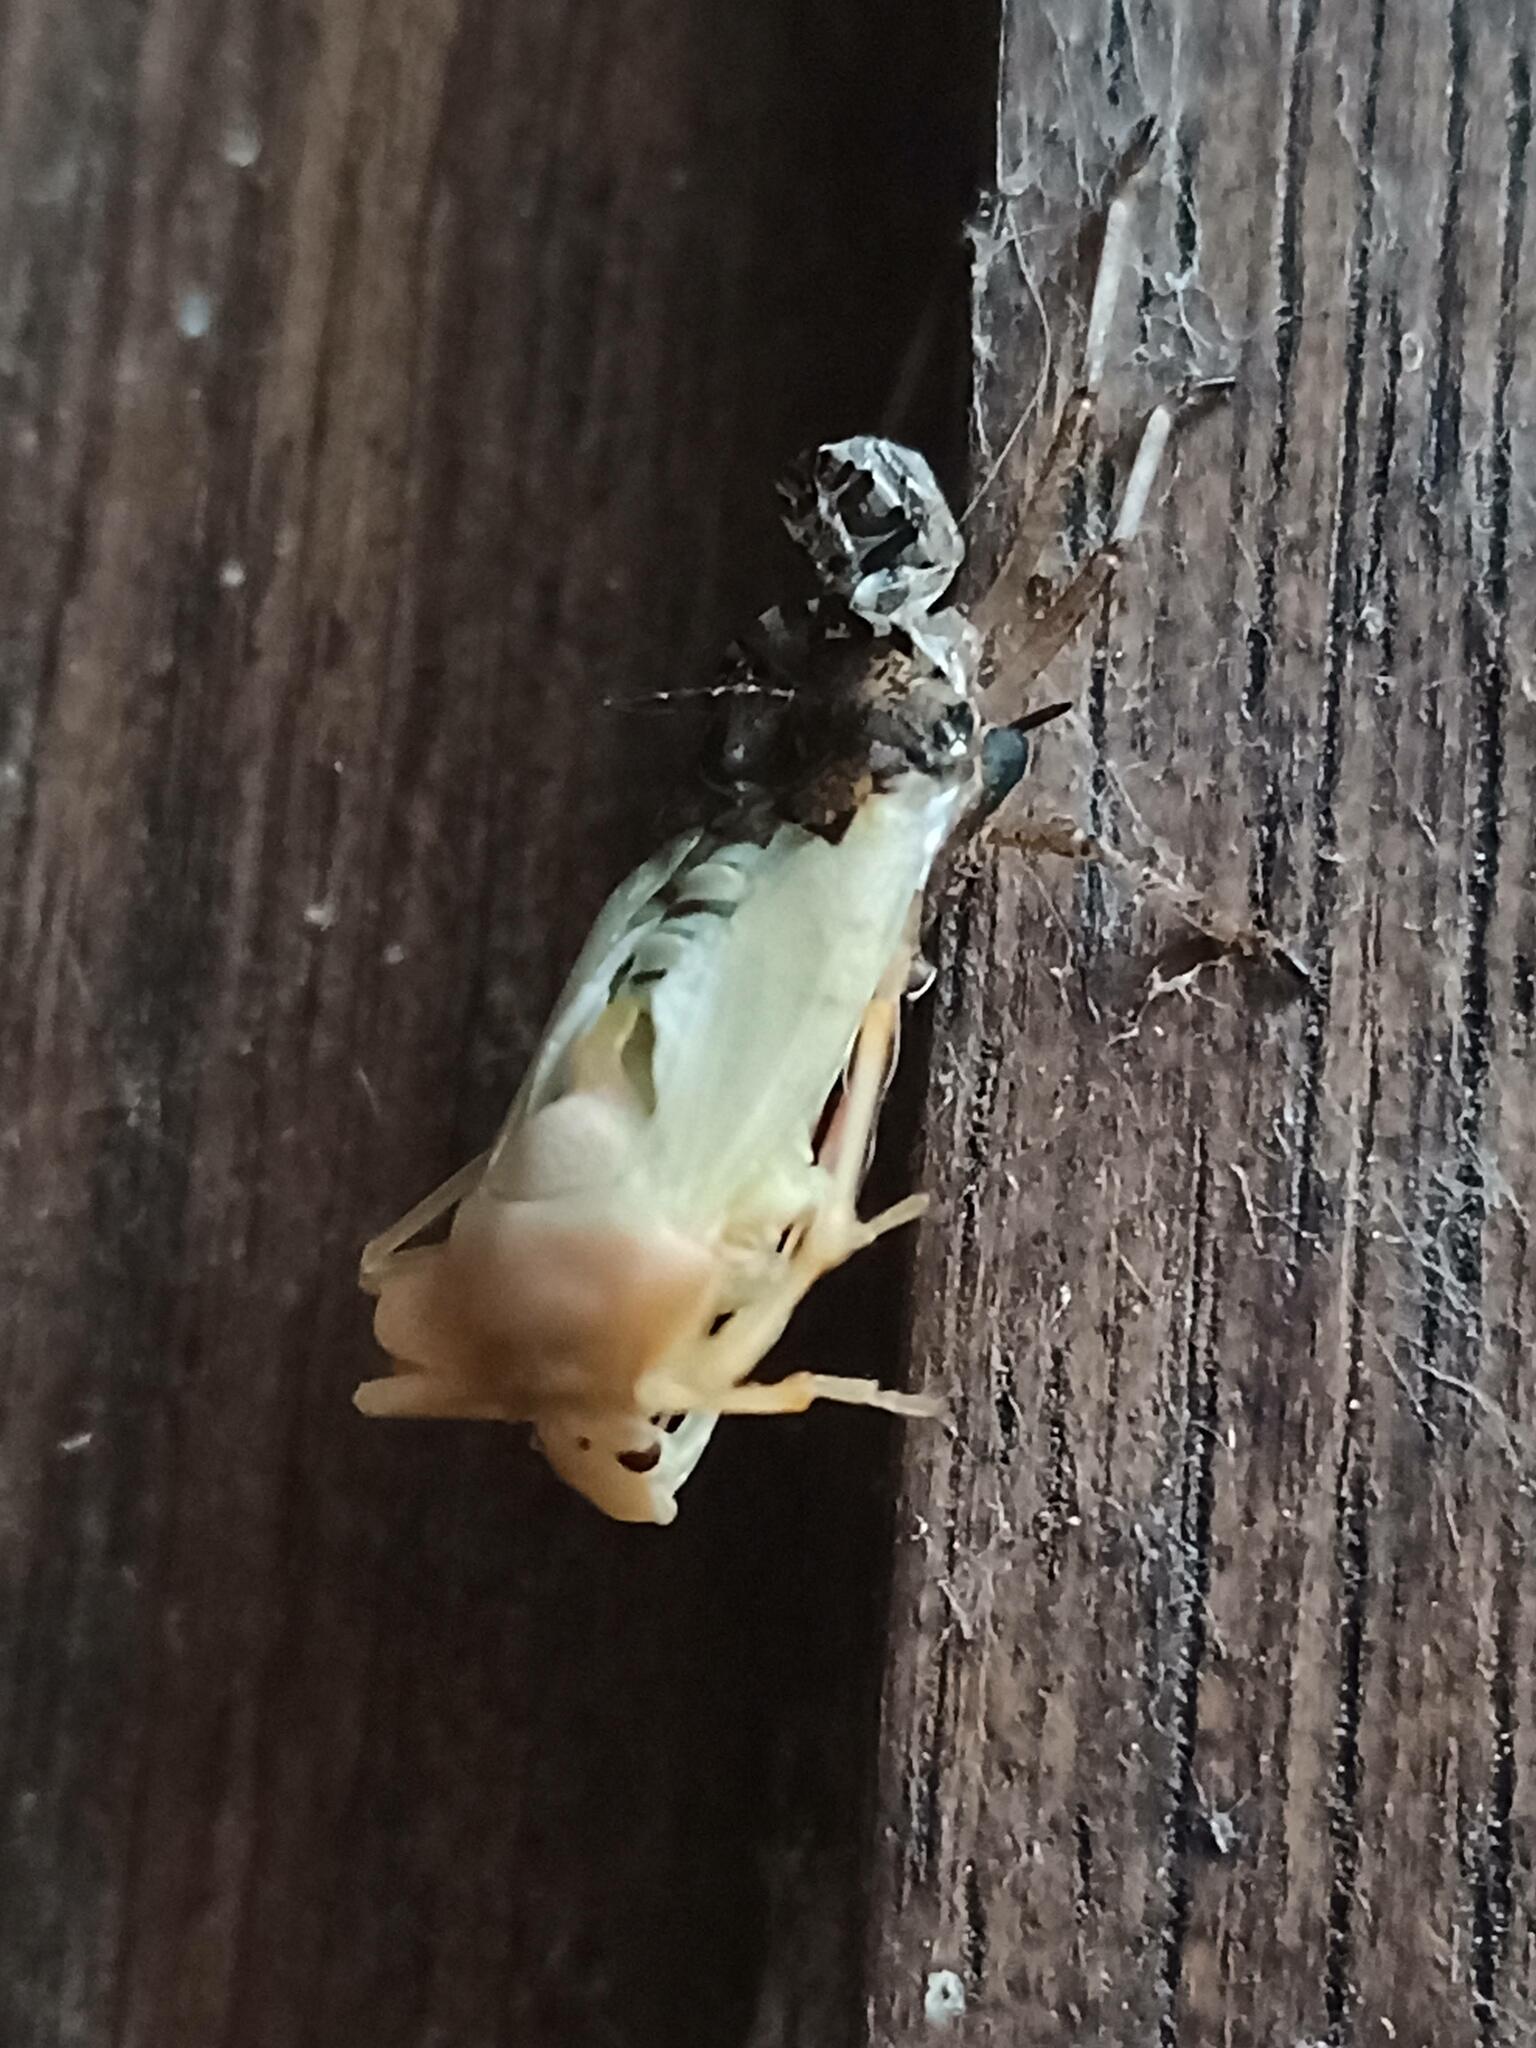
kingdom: Animalia
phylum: Arthropoda
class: Insecta
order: Hemiptera
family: Pentatomidae
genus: Pentatoma
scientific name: Pentatoma rufipes
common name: Forest bug
